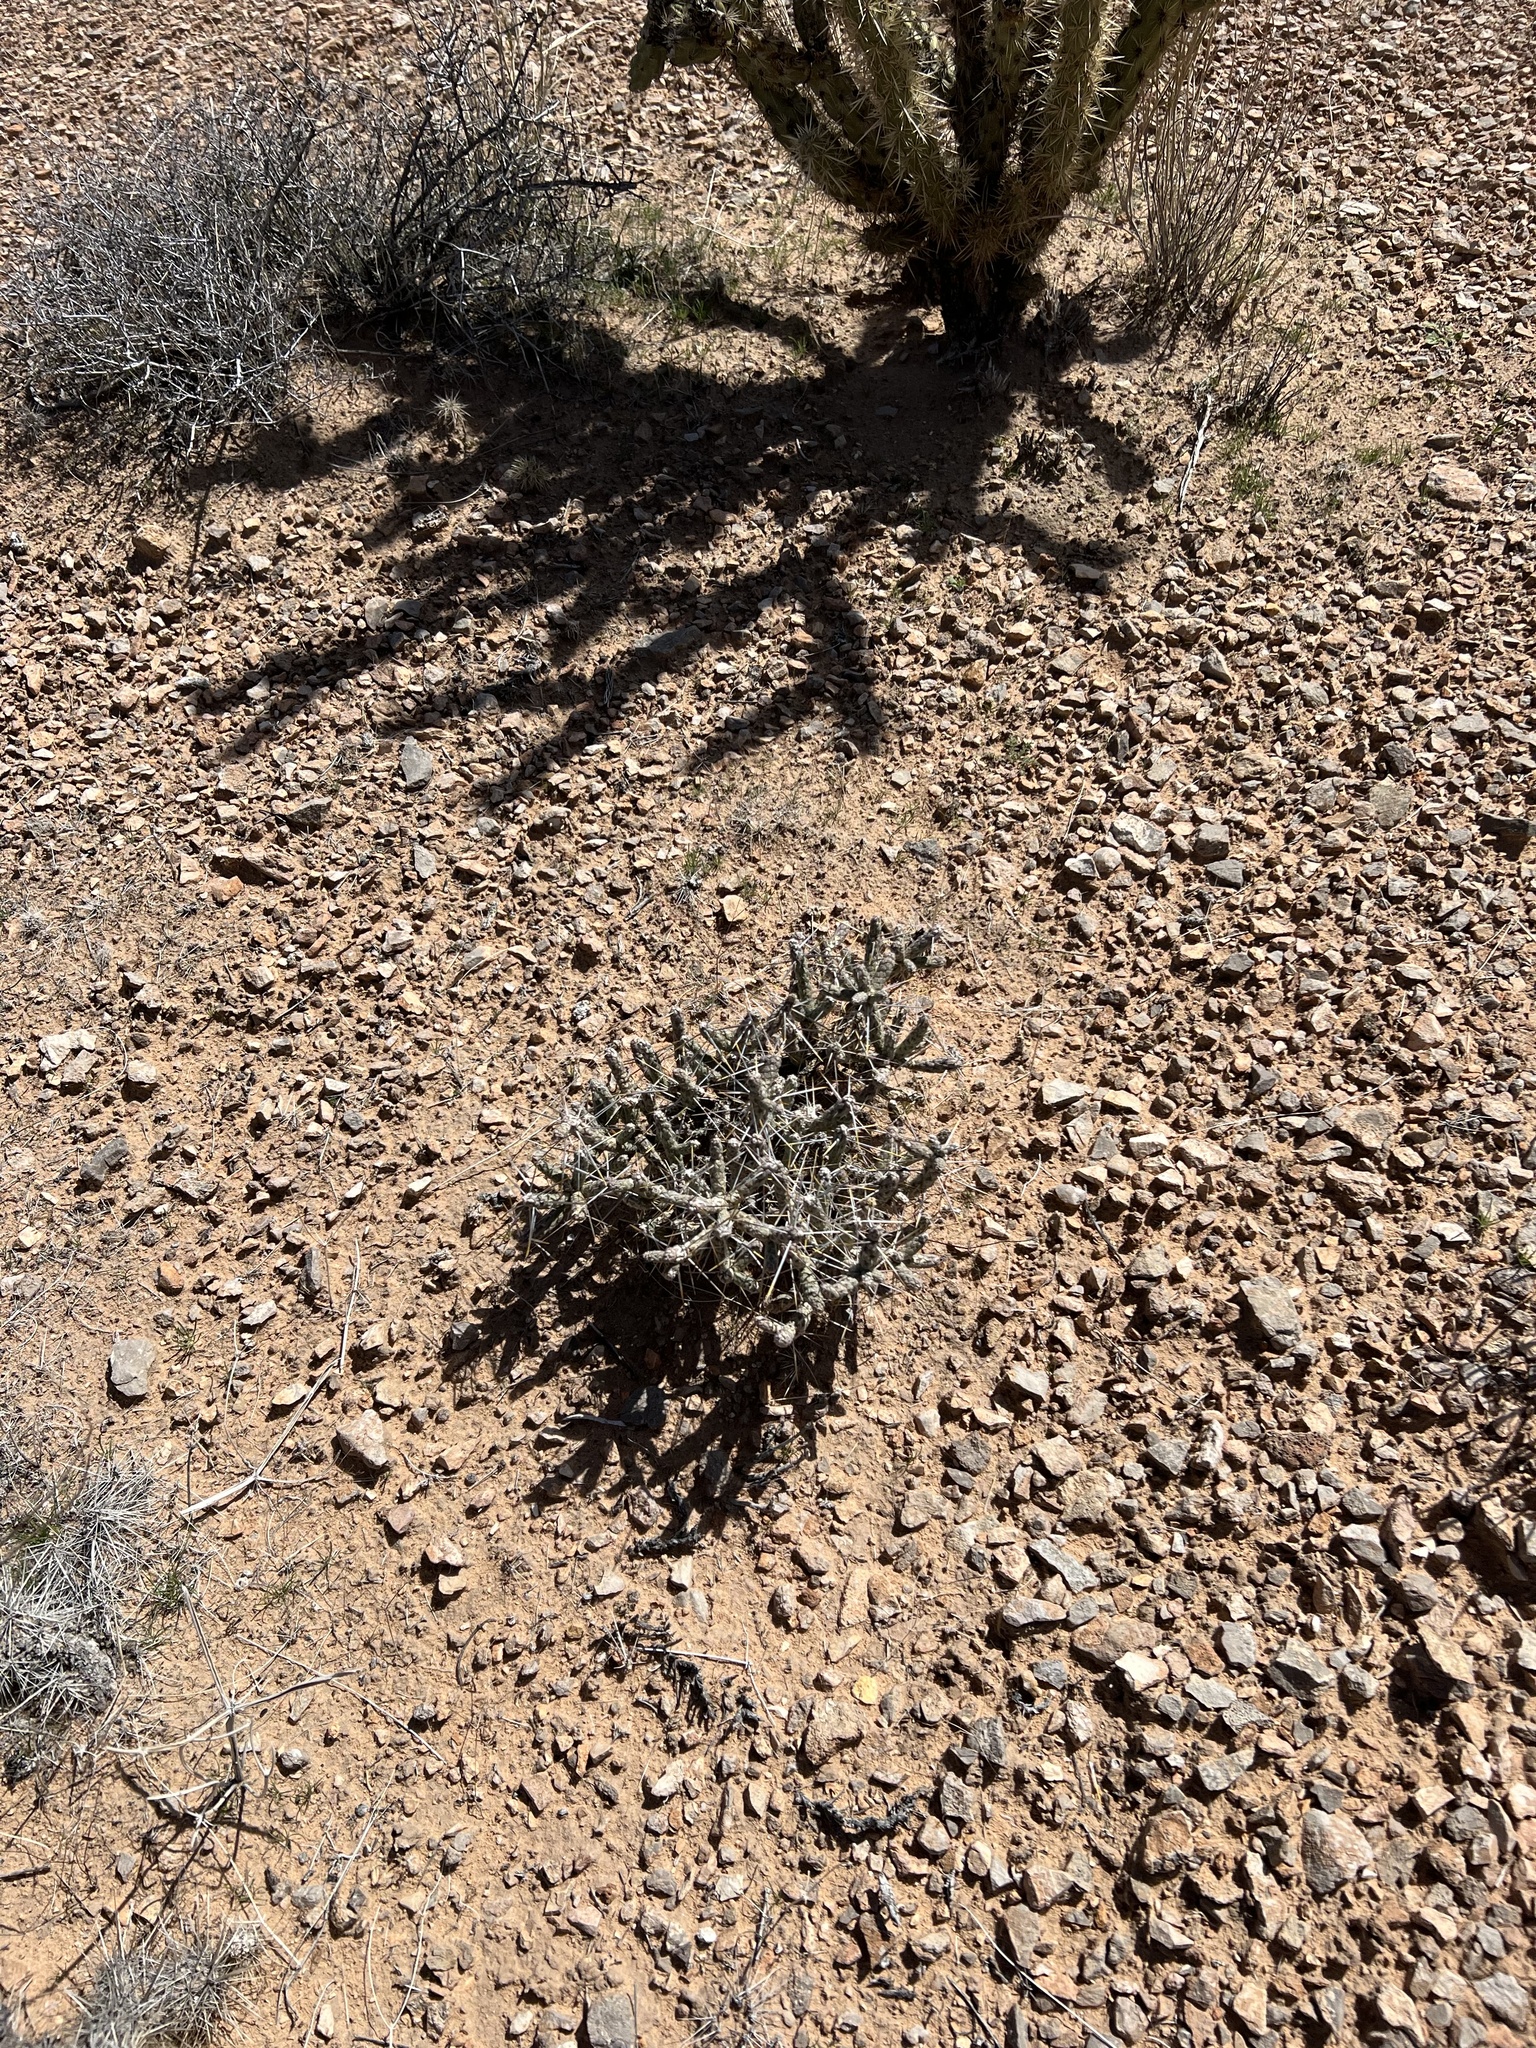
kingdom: Plantae
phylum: Tracheophyta
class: Magnoliopsida
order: Caryophyllales
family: Cactaceae
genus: Cylindropuntia
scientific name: Cylindropuntia ramosissima
